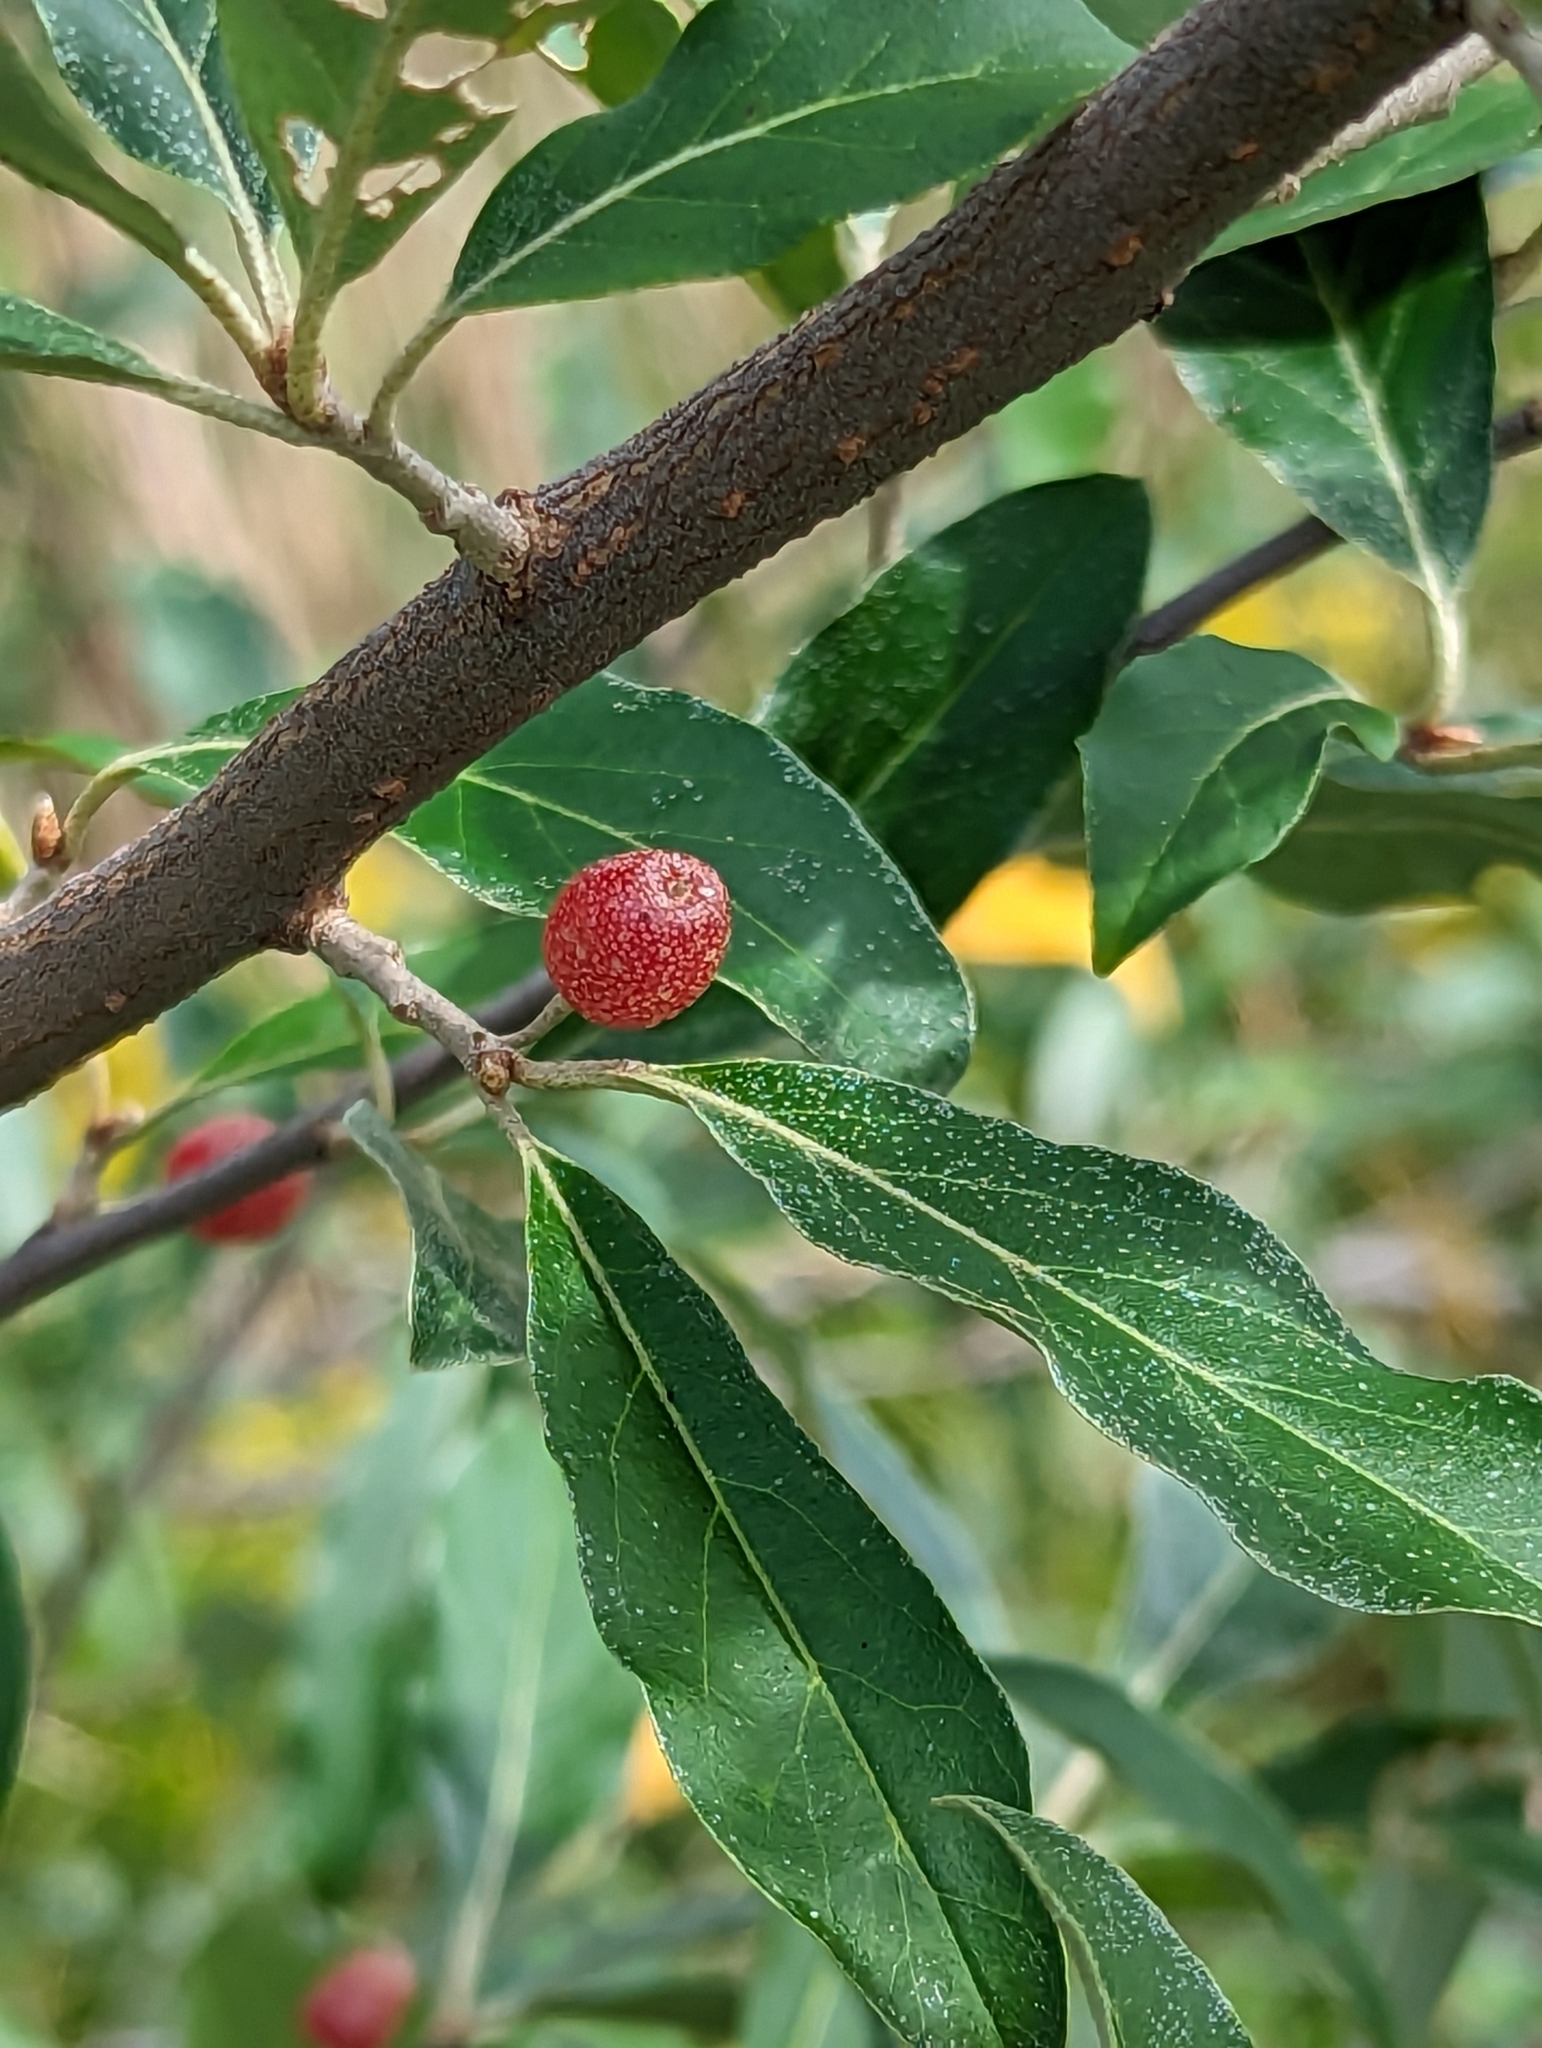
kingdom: Plantae
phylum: Tracheophyta
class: Magnoliopsida
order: Rosales
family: Elaeagnaceae
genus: Elaeagnus
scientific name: Elaeagnus umbellata
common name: Autumn olive
